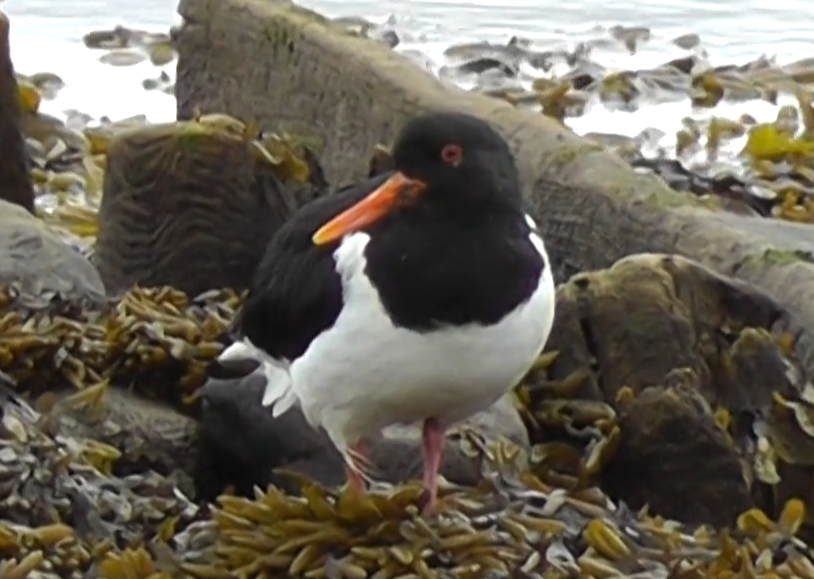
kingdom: Animalia
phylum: Chordata
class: Aves
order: Charadriiformes
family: Haematopodidae
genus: Haematopus
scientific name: Haematopus ostralegus
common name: Eurasian oystercatcher
